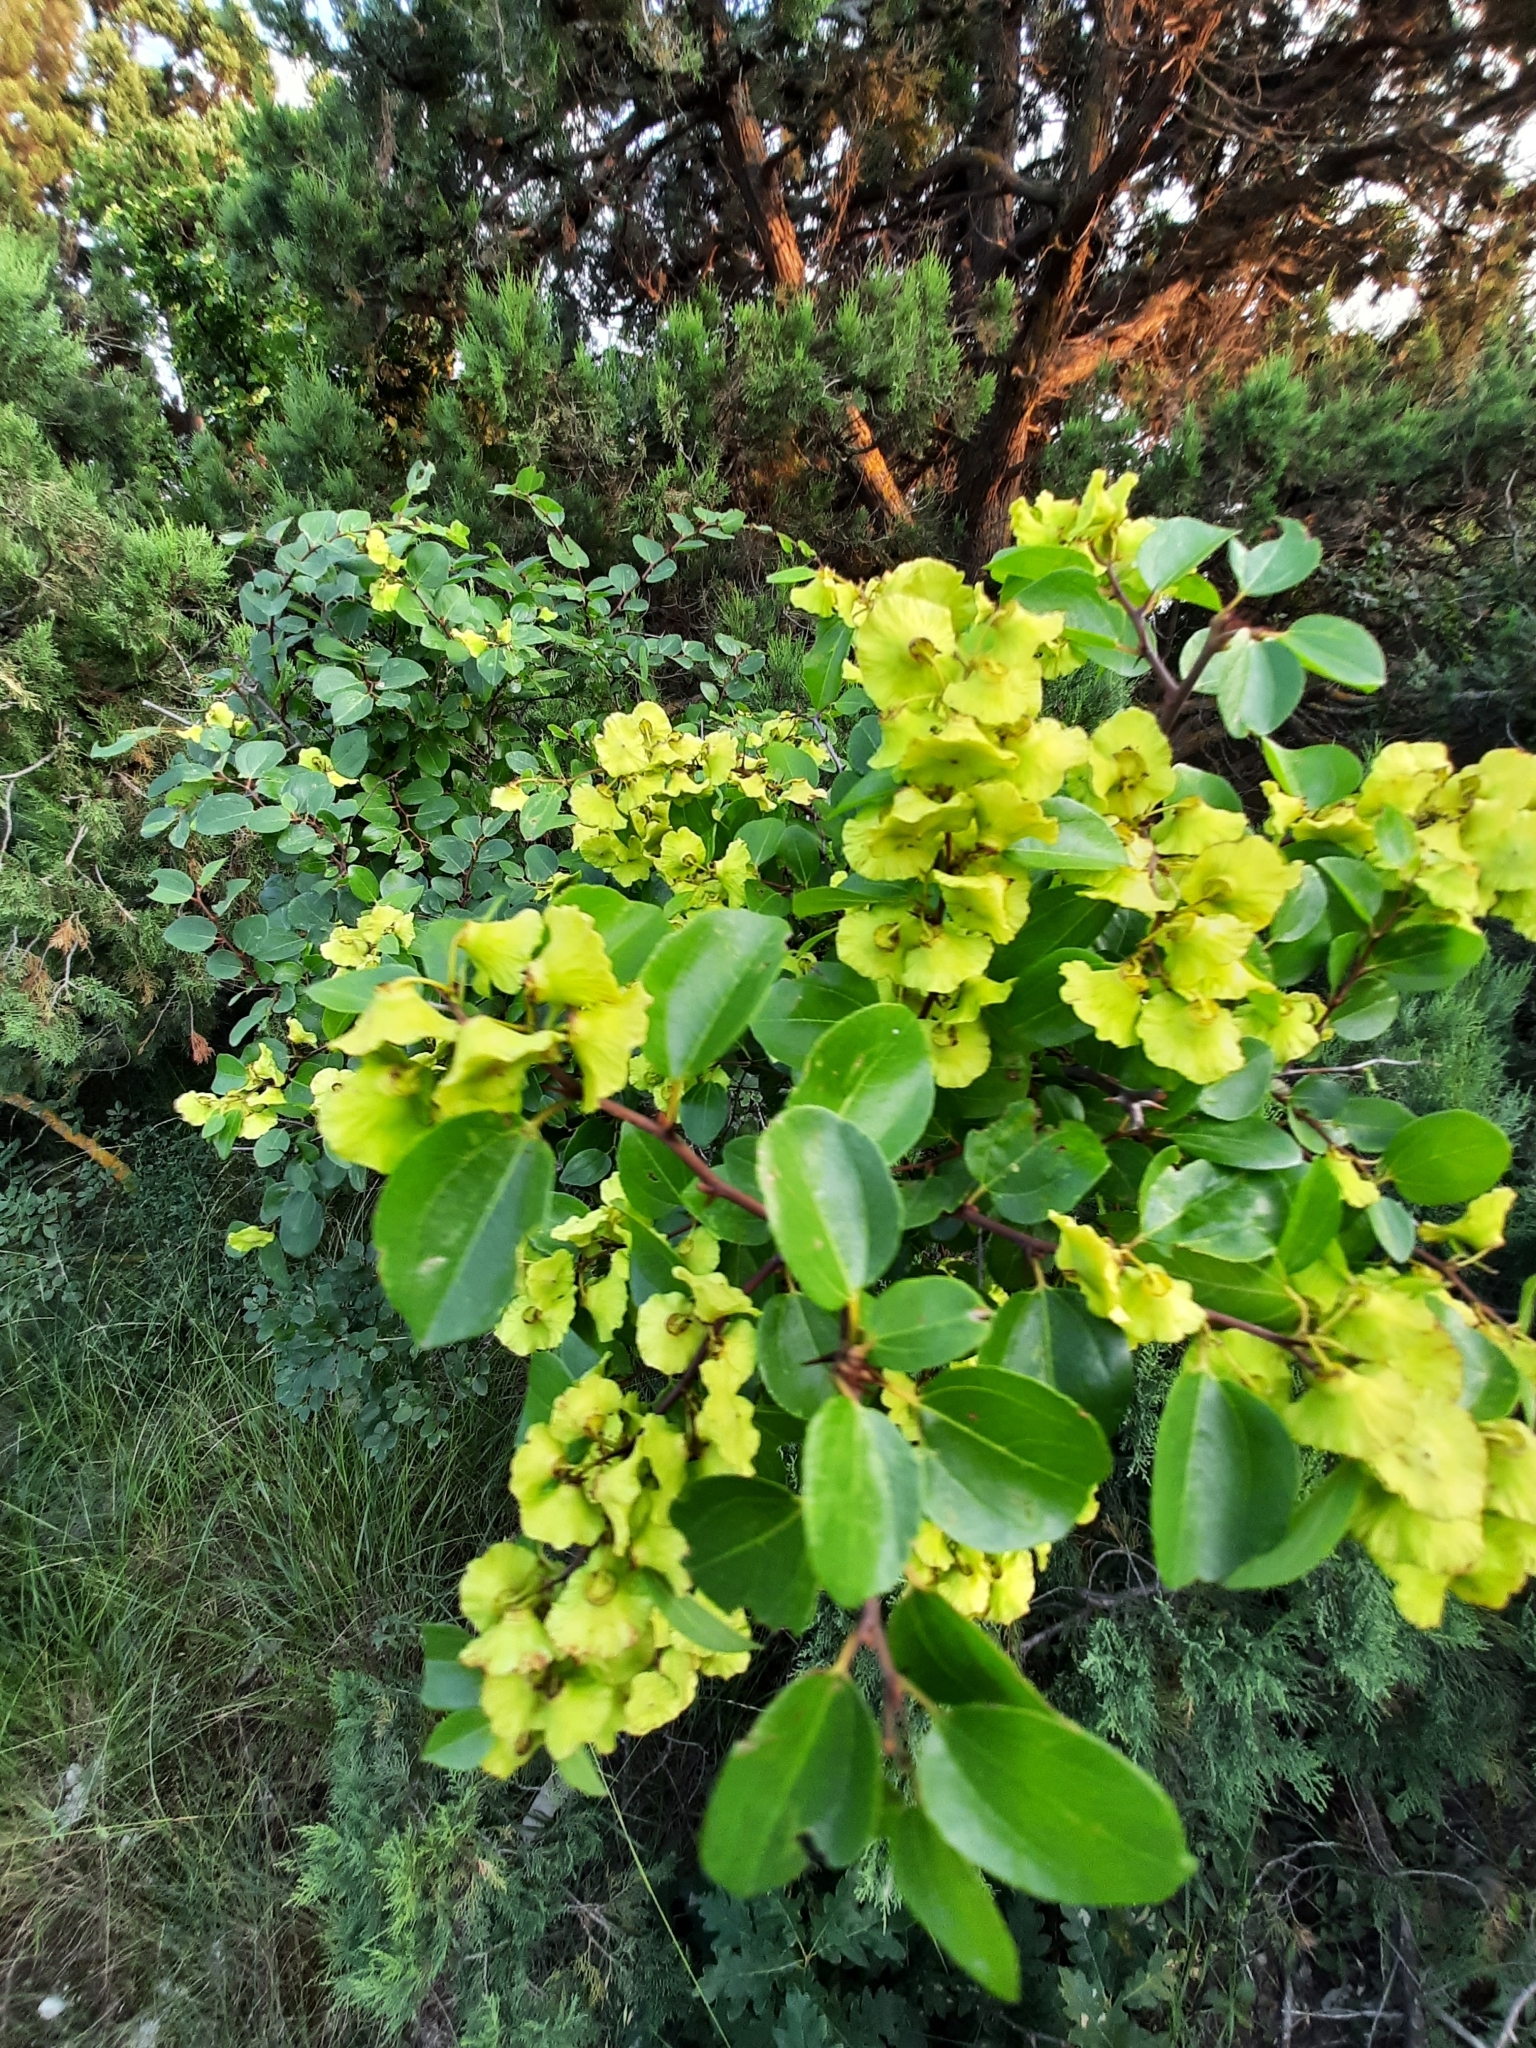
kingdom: Plantae
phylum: Tracheophyta
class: Magnoliopsida
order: Rosales
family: Rhamnaceae
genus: Paliurus
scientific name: Paliurus spina-christi
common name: Jeruselem thorn
